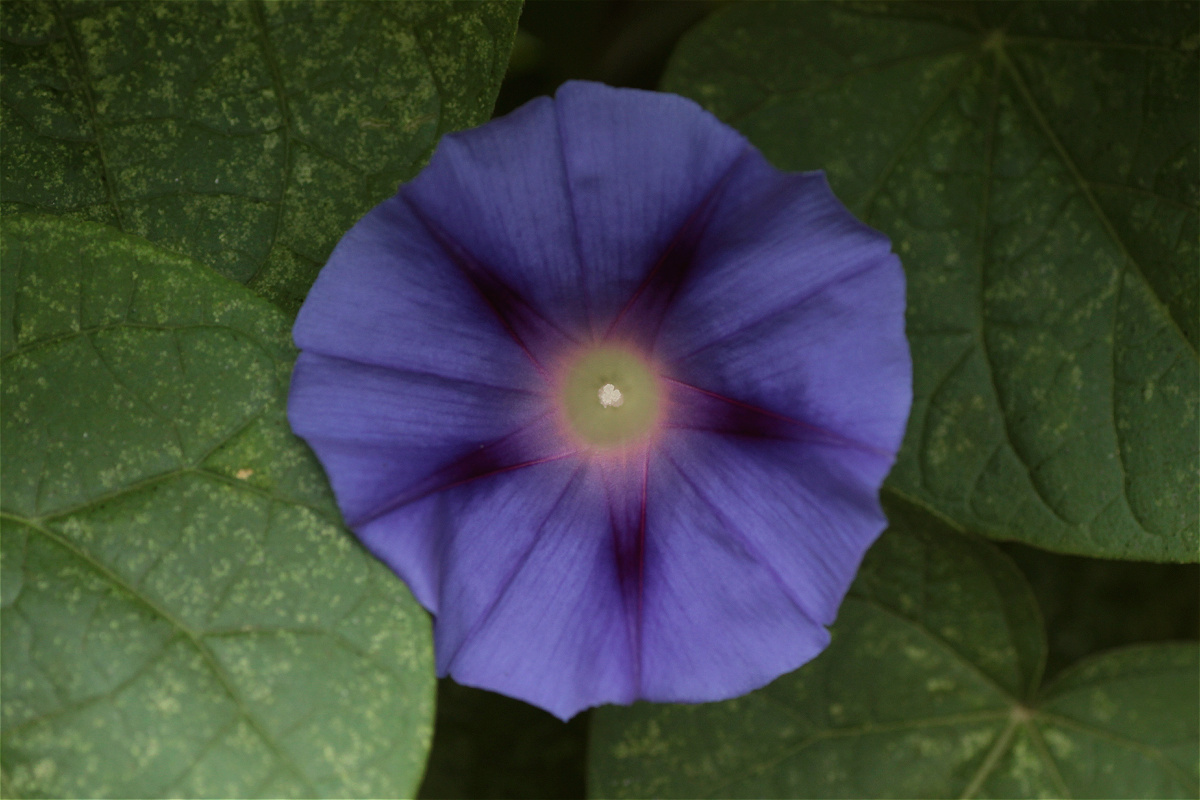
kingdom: Plantae
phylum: Tracheophyta
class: Magnoliopsida
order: Solanales
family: Convolvulaceae
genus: Ipomoea
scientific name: Ipomoea purpurea
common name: Common morning-glory
